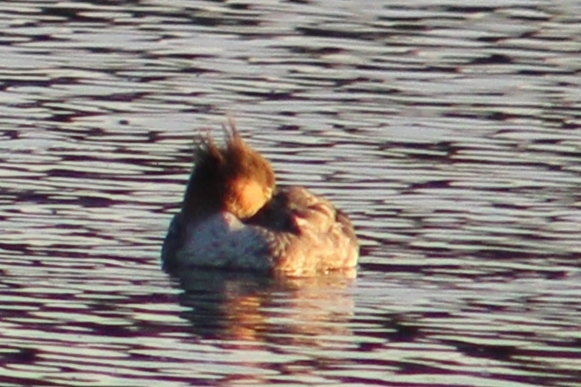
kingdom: Animalia
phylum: Chordata
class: Aves
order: Anseriformes
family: Anatidae
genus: Mergus
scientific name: Mergus serrator
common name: Red-breasted merganser
